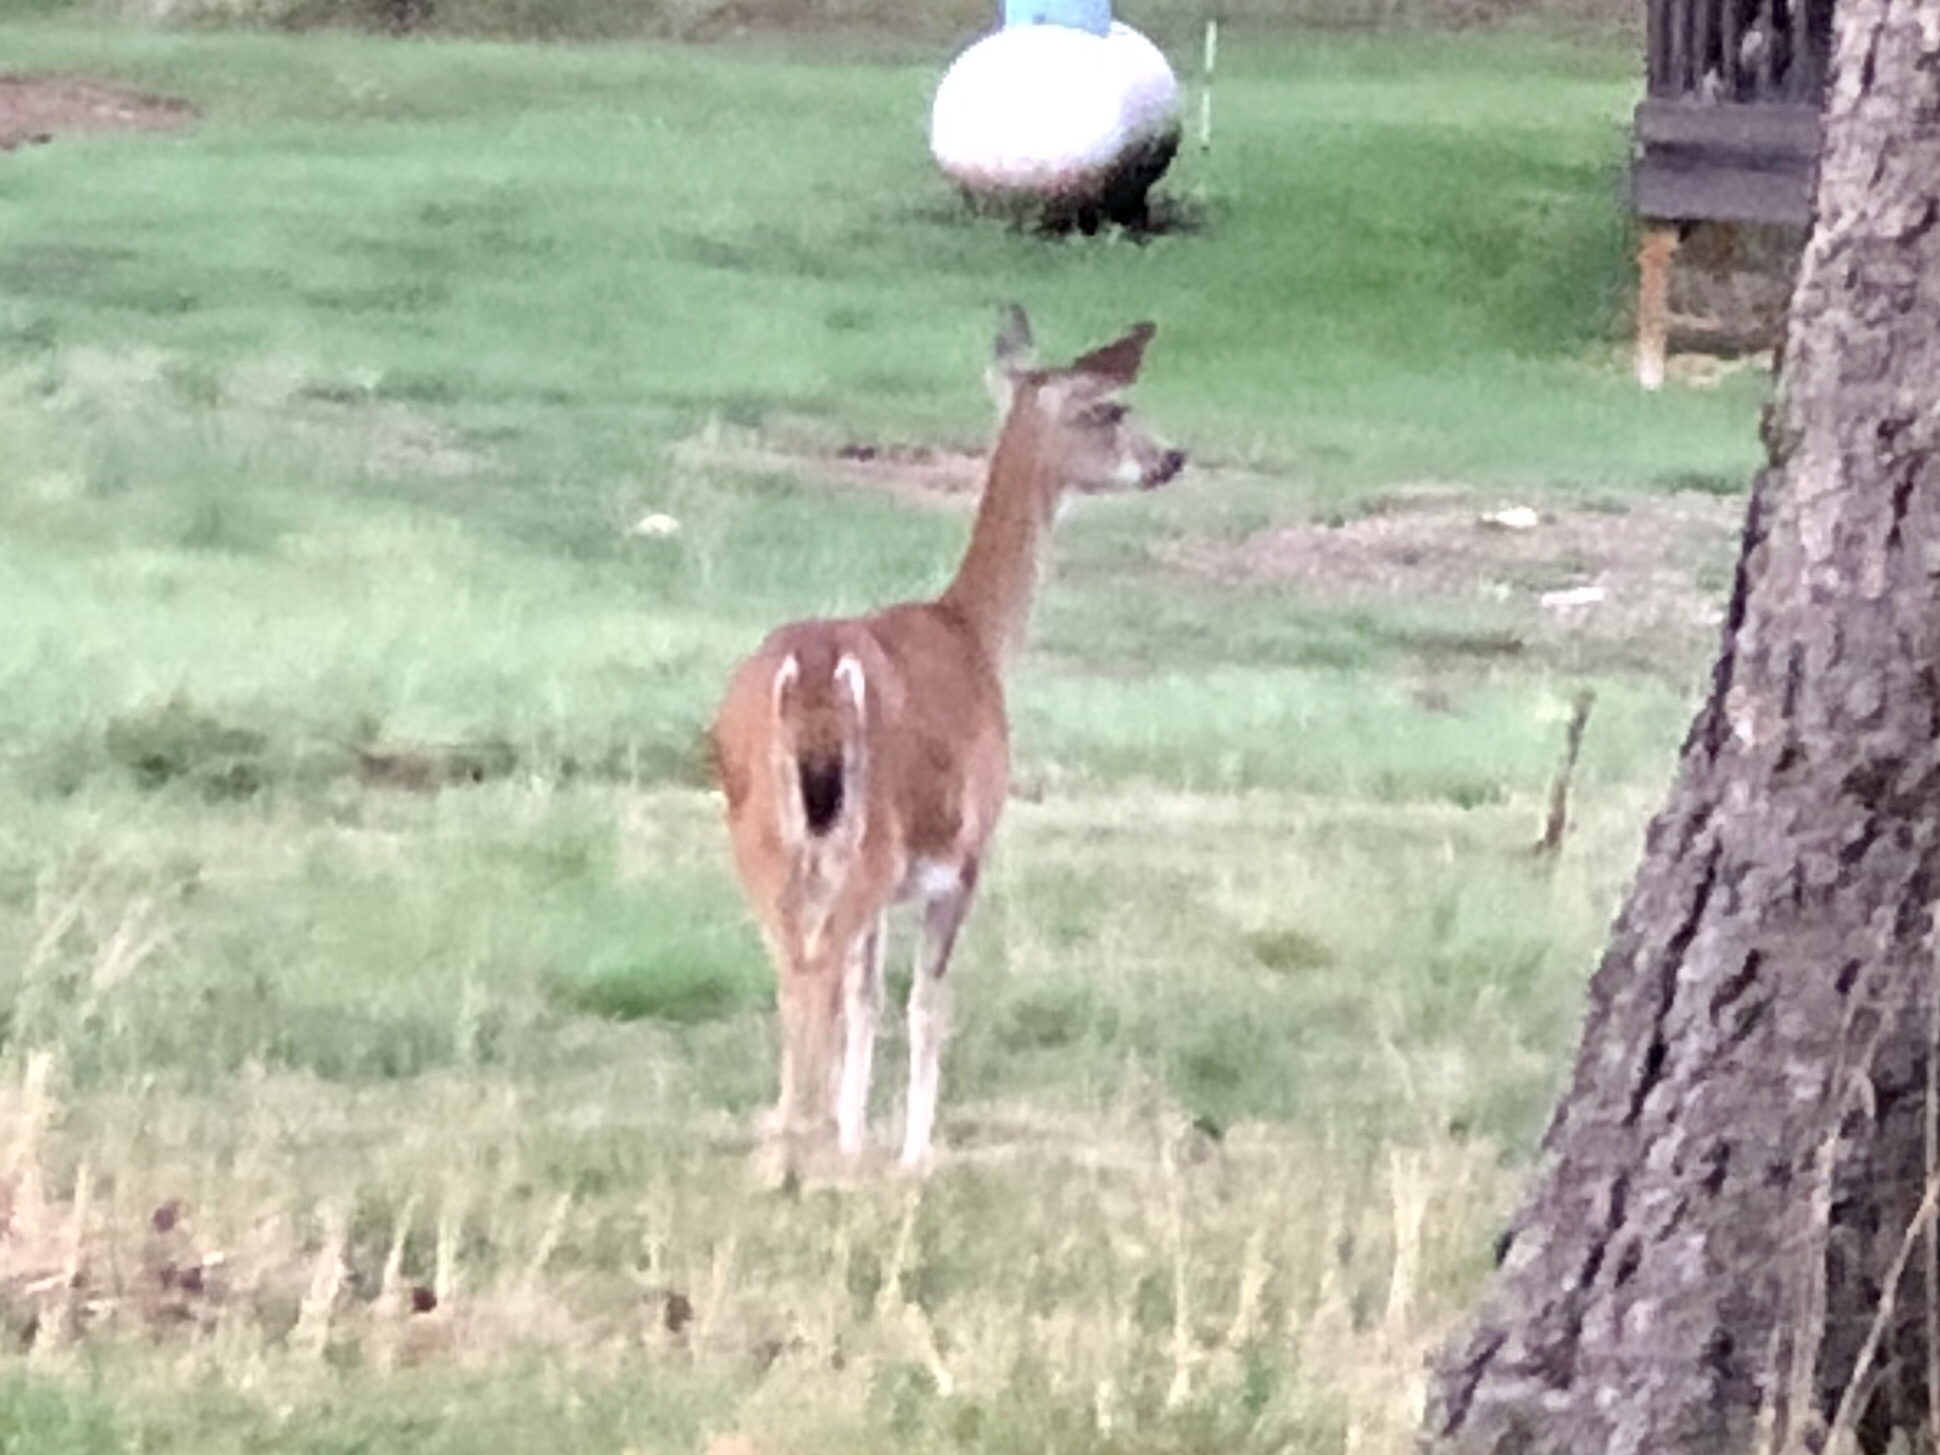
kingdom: Animalia
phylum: Chordata
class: Mammalia
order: Artiodactyla
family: Cervidae
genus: Odocoileus
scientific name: Odocoileus virginianus
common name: White-tailed deer
